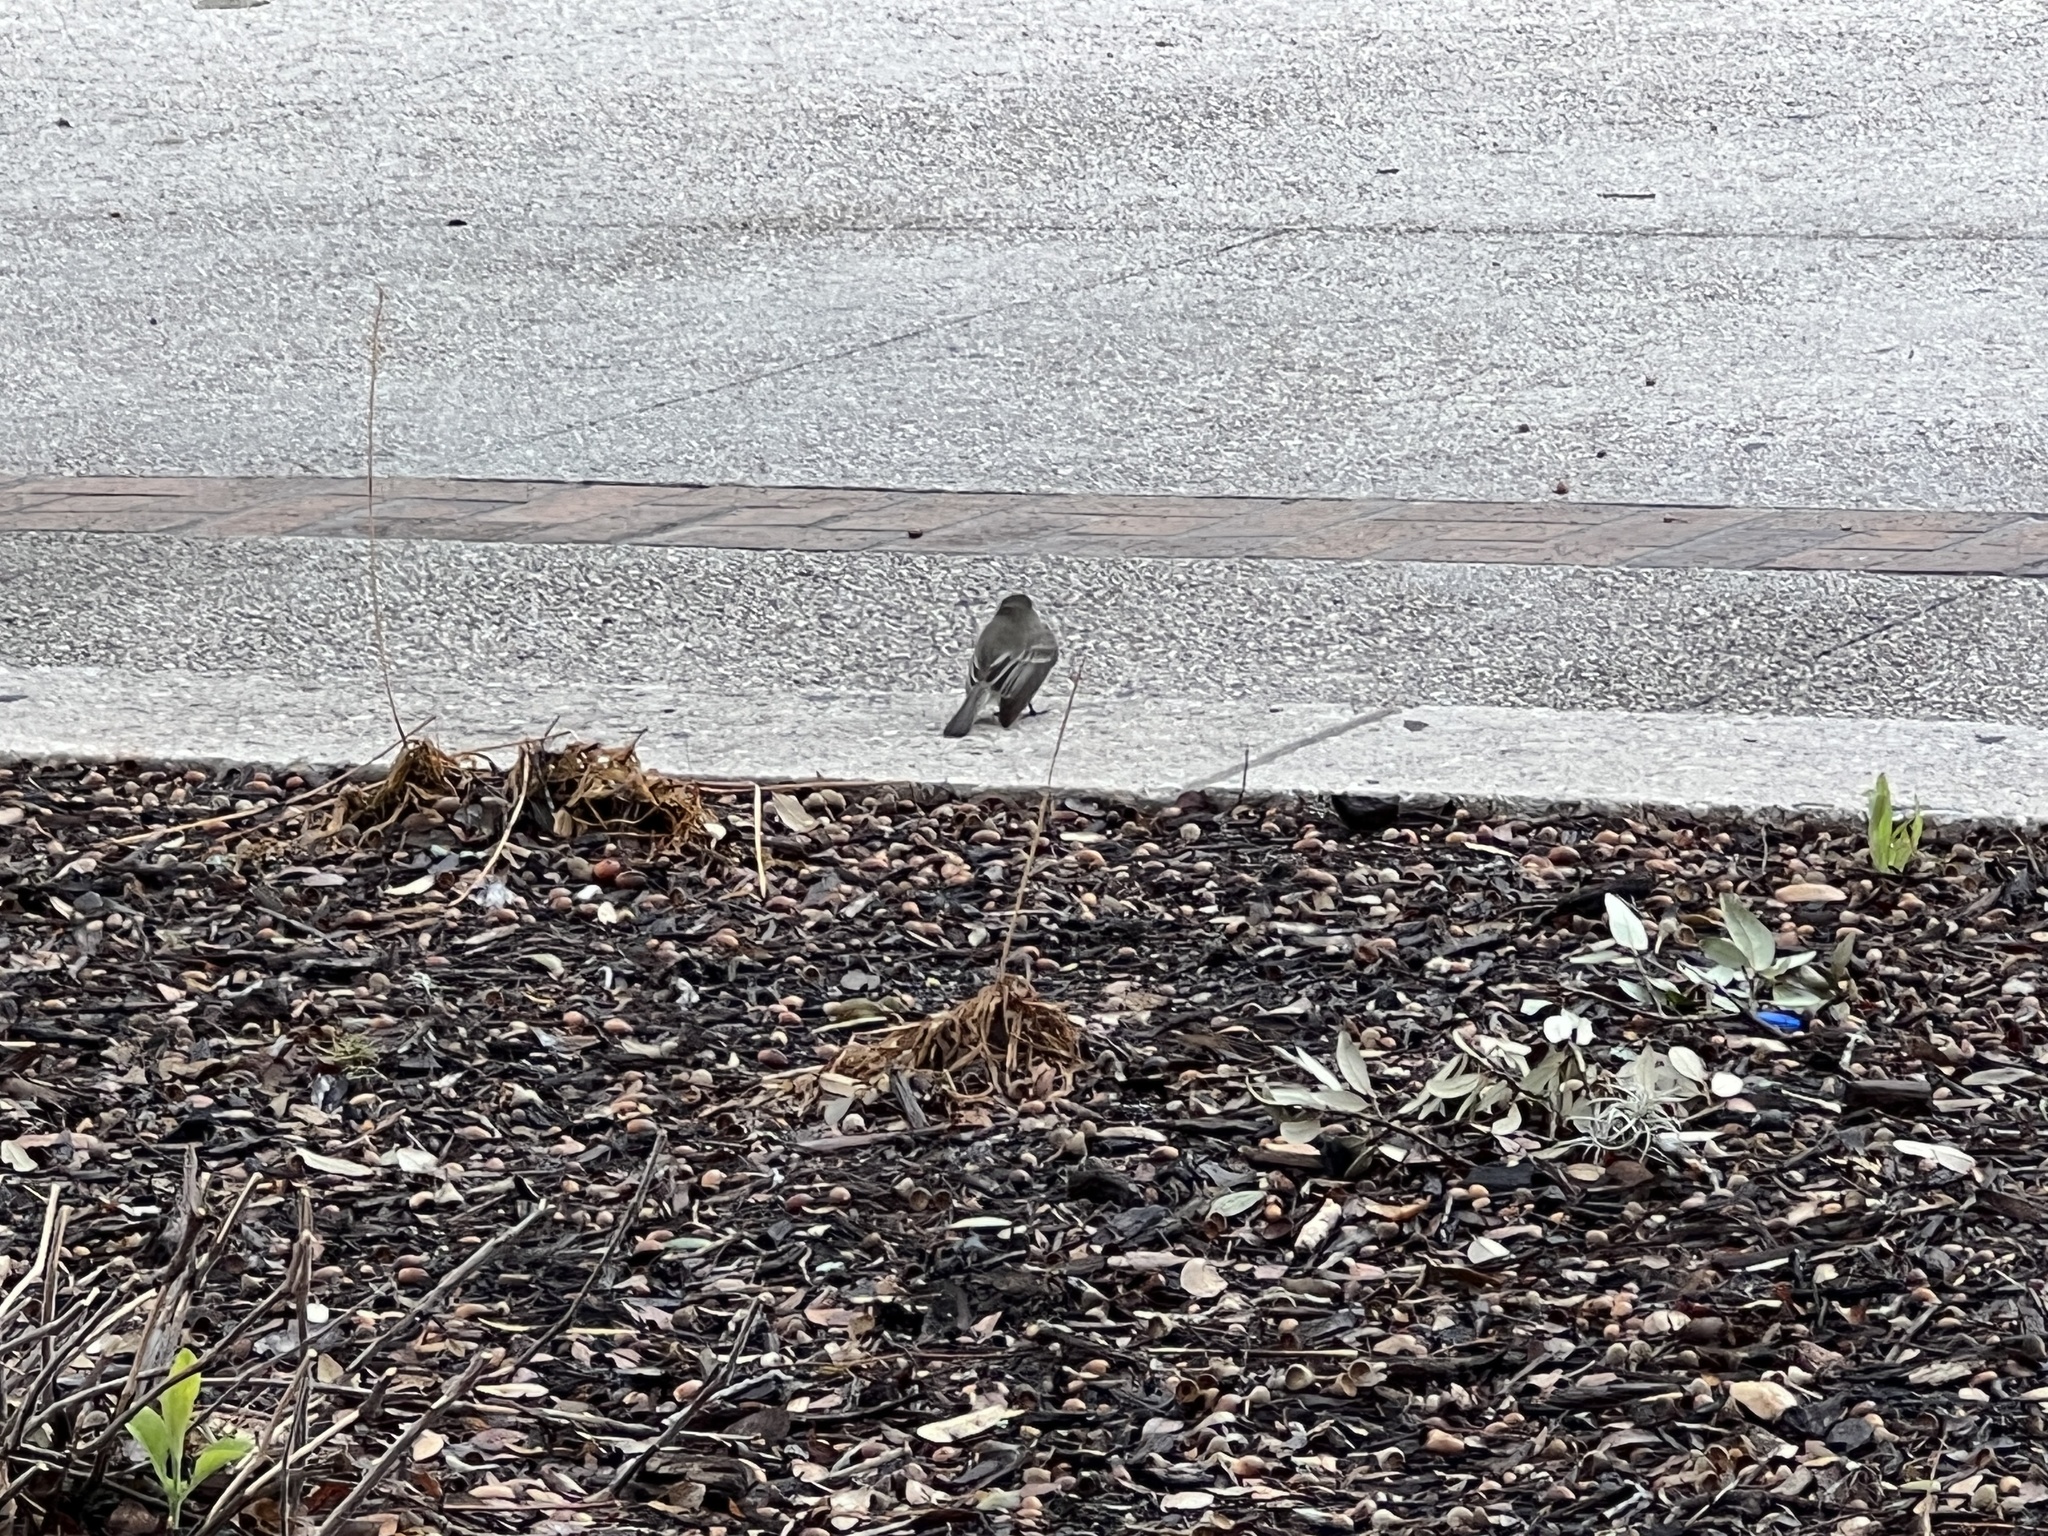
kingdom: Animalia
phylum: Chordata
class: Aves
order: Passeriformes
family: Tyrannidae
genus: Sayornis
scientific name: Sayornis phoebe
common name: Eastern phoebe
